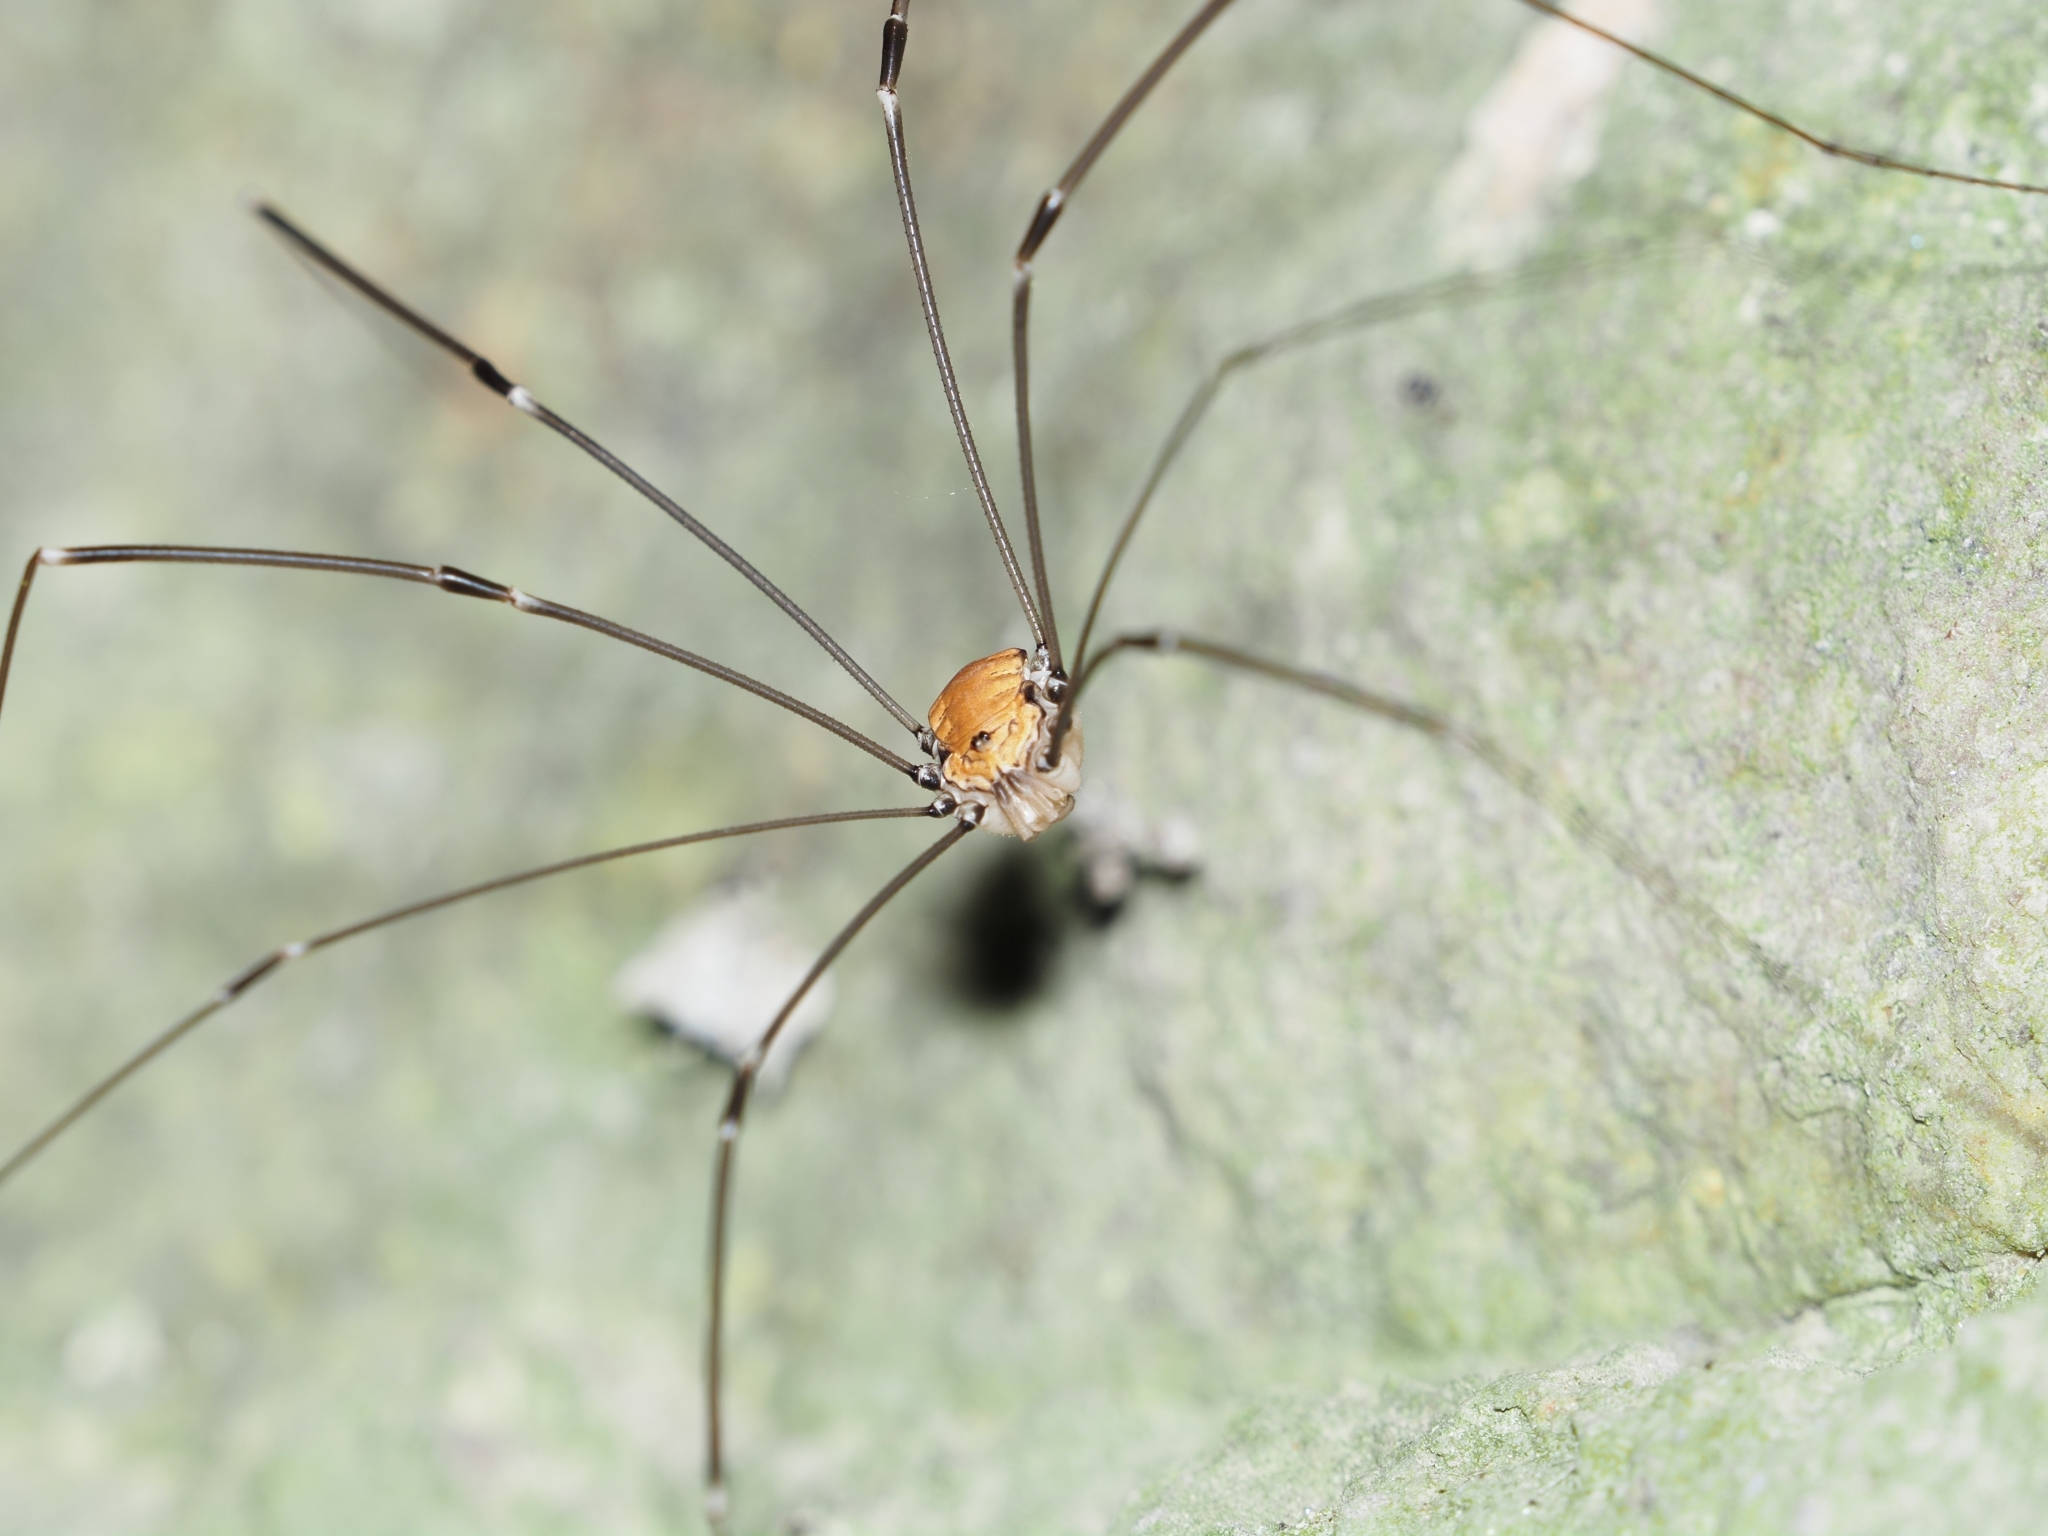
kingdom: Animalia
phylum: Arthropoda
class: Arachnida
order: Opiliones
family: Sclerosomatidae
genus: Leiobunum
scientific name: Leiobunum limbatum
